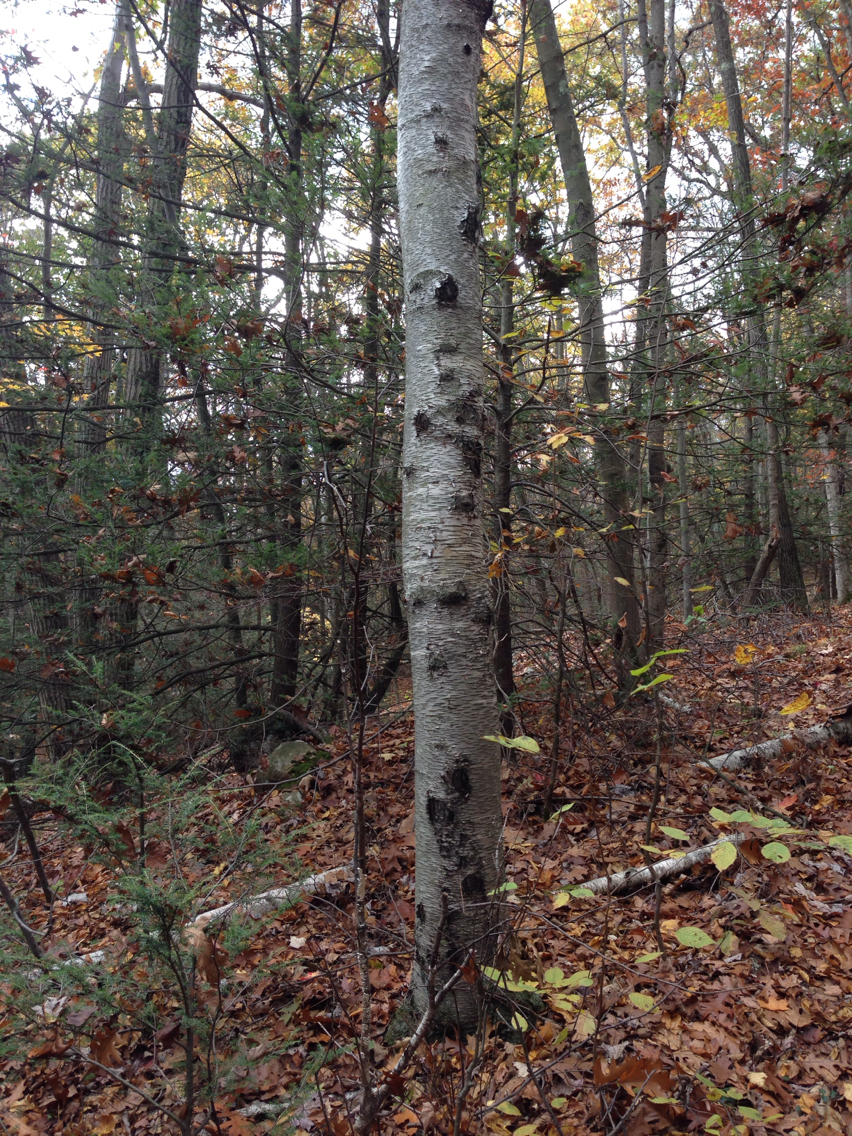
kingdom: Plantae
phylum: Tracheophyta
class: Magnoliopsida
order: Fagales
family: Betulaceae
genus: Betula
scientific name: Betula populifolia
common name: Fire birch
